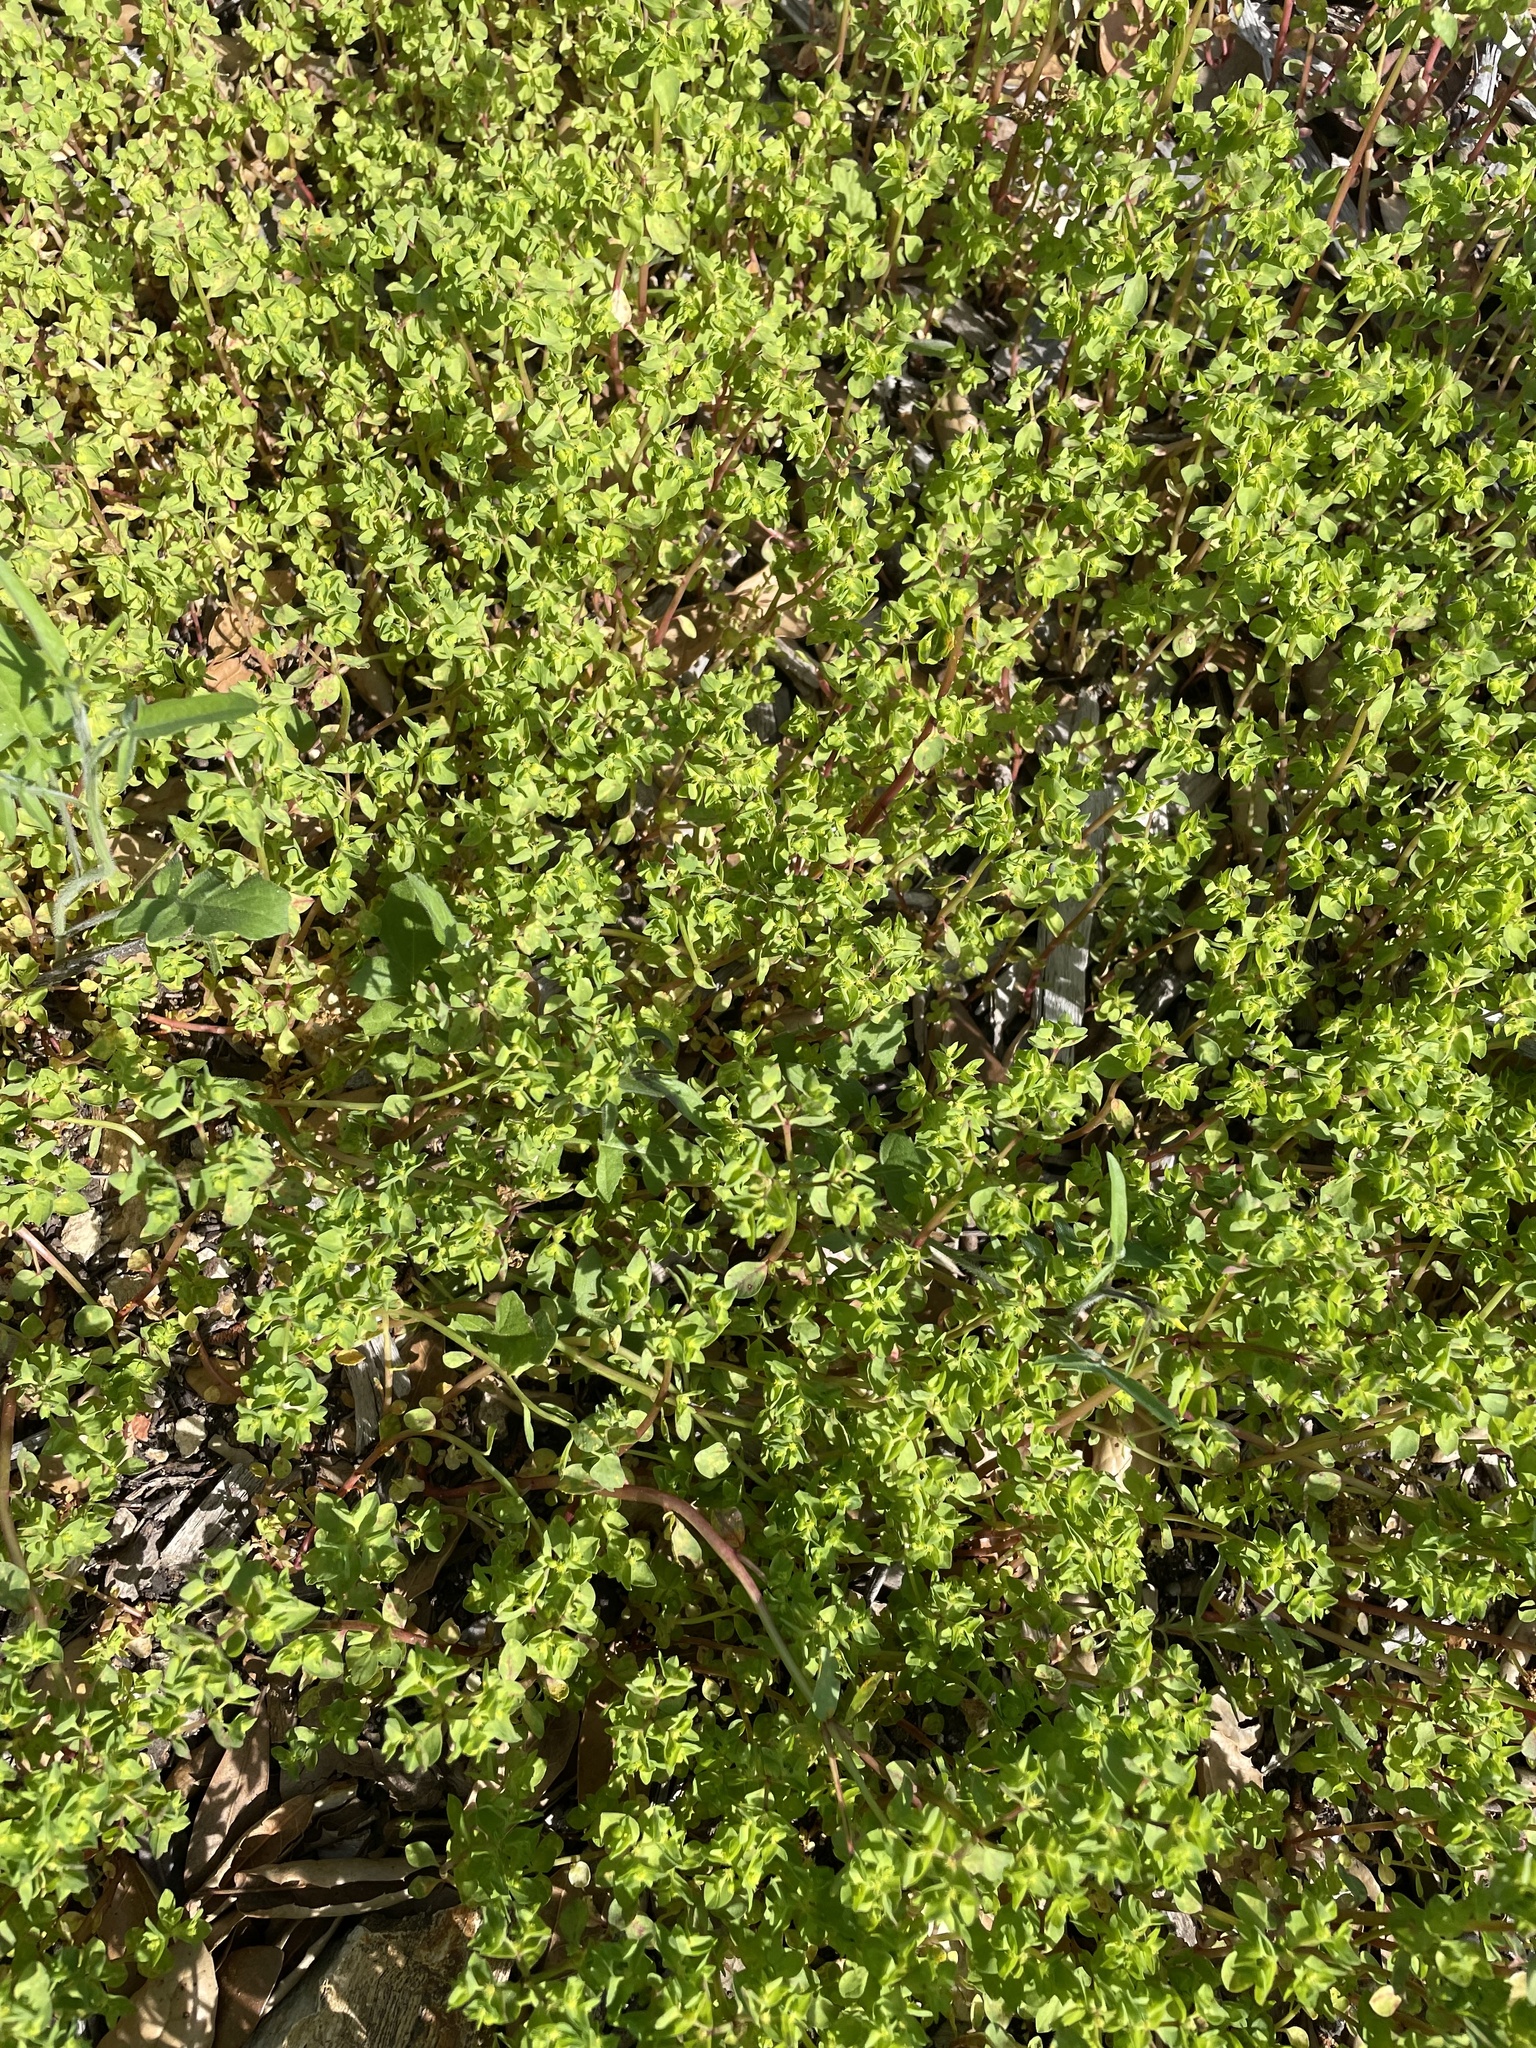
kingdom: Plantae
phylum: Tracheophyta
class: Magnoliopsida
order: Malpighiales
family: Euphorbiaceae
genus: Euphorbia
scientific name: Euphorbia peplus
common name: Petty spurge
